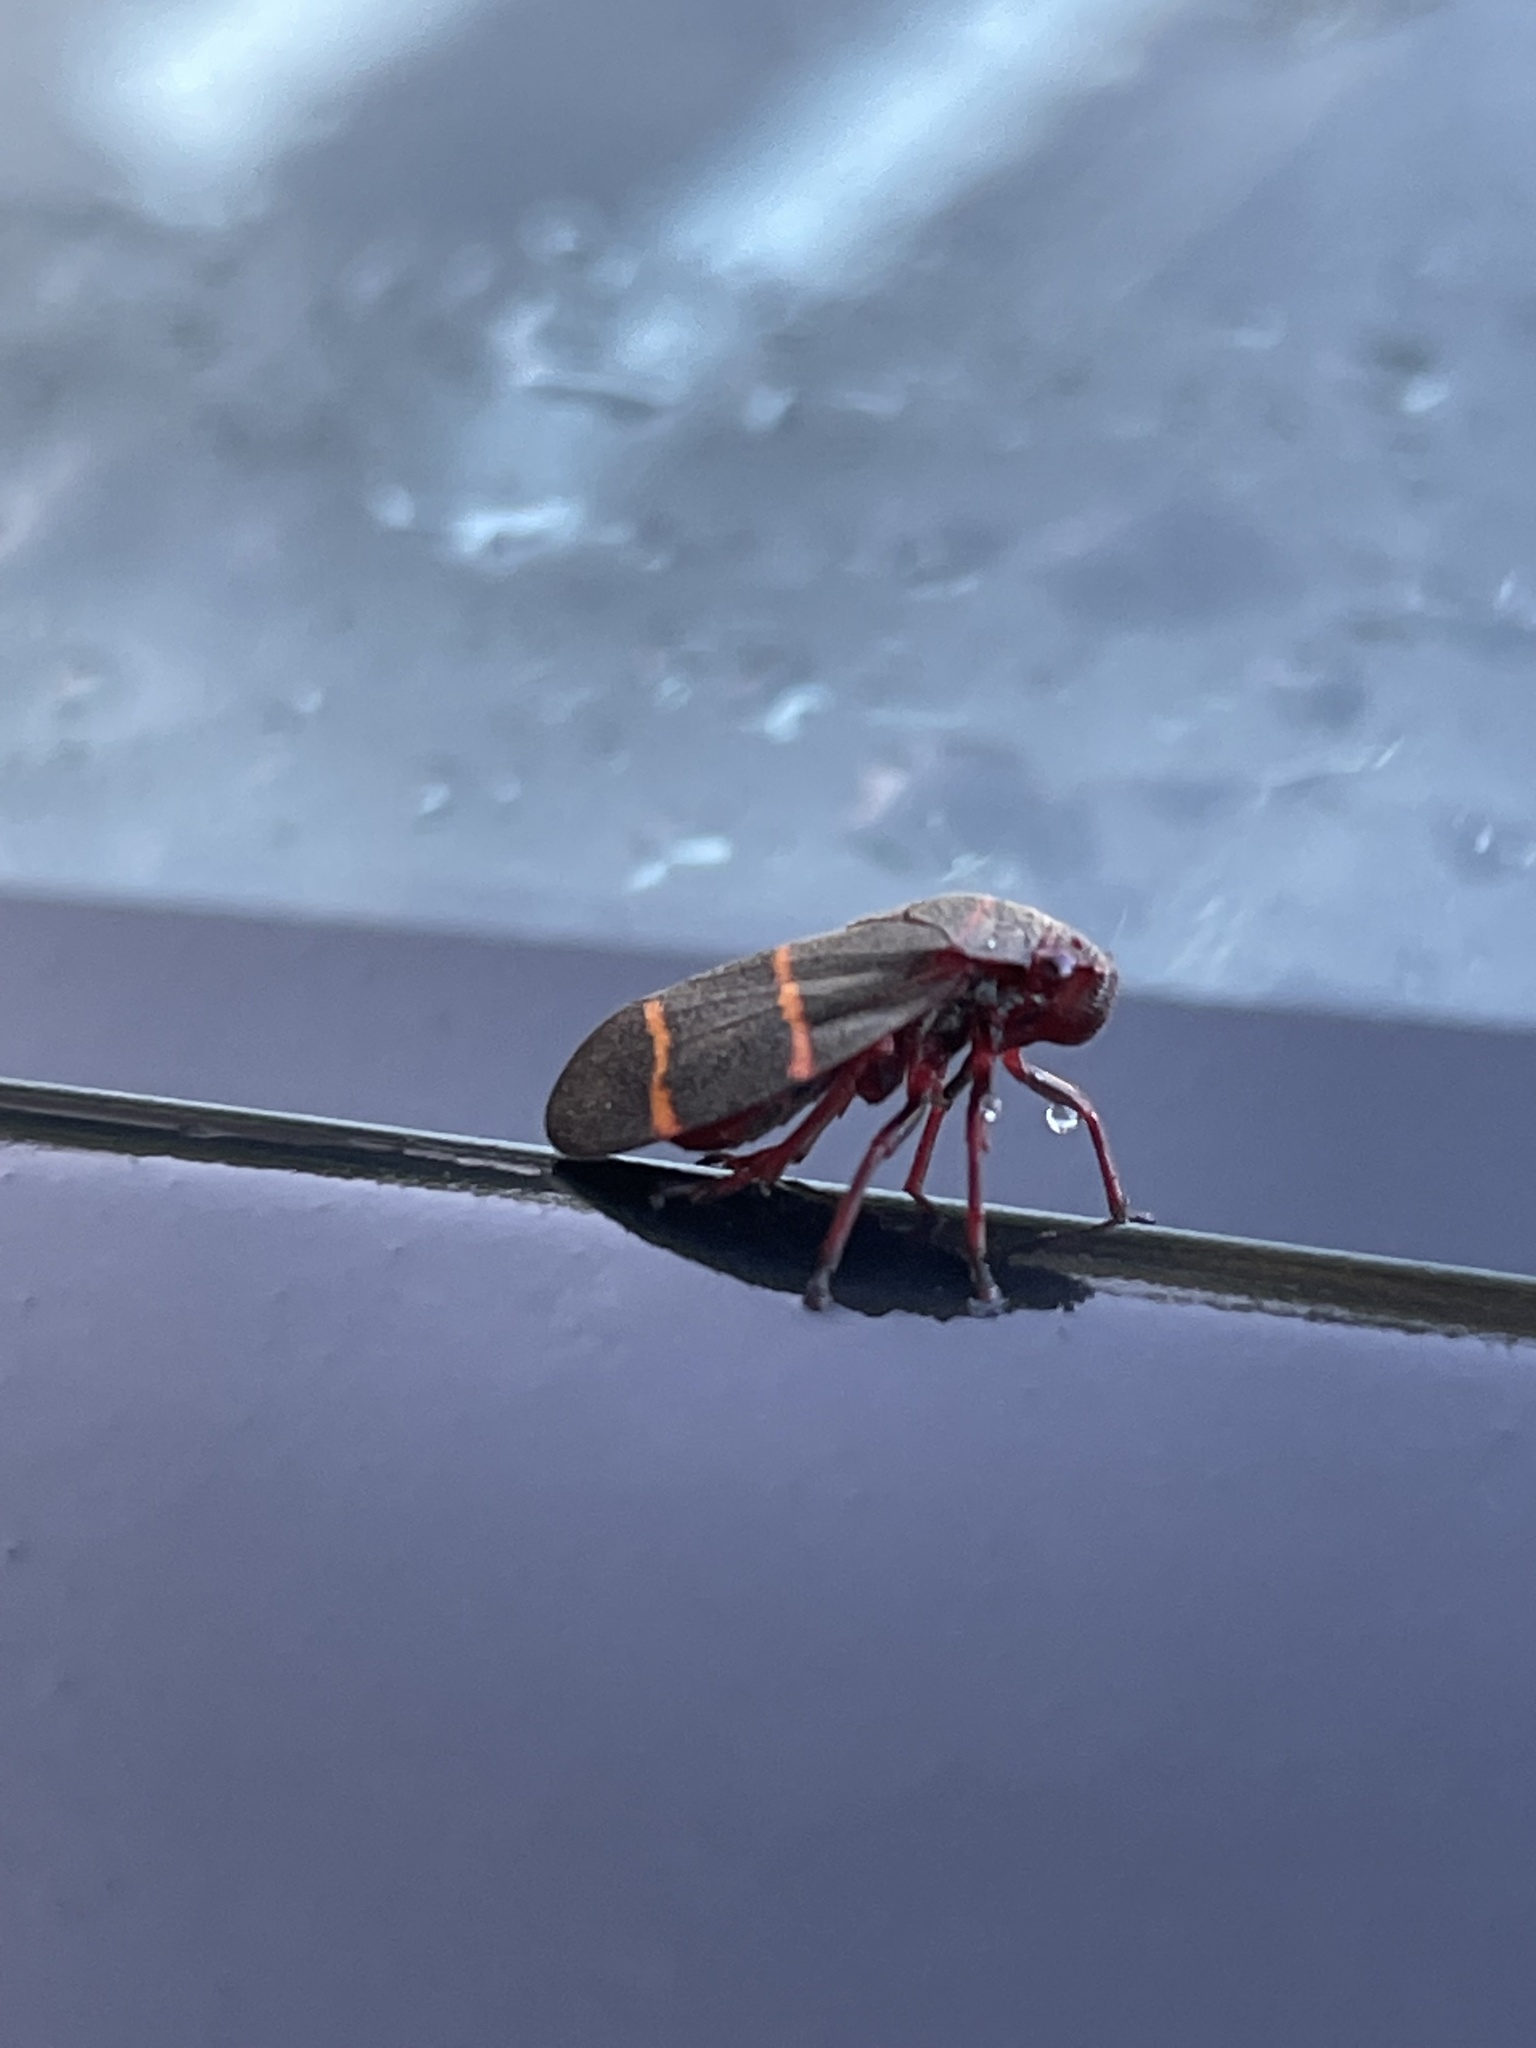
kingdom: Animalia
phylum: Arthropoda
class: Insecta
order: Hemiptera
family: Cercopidae
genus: Prosapia
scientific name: Prosapia bicincta
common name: Twolined spittlebug
